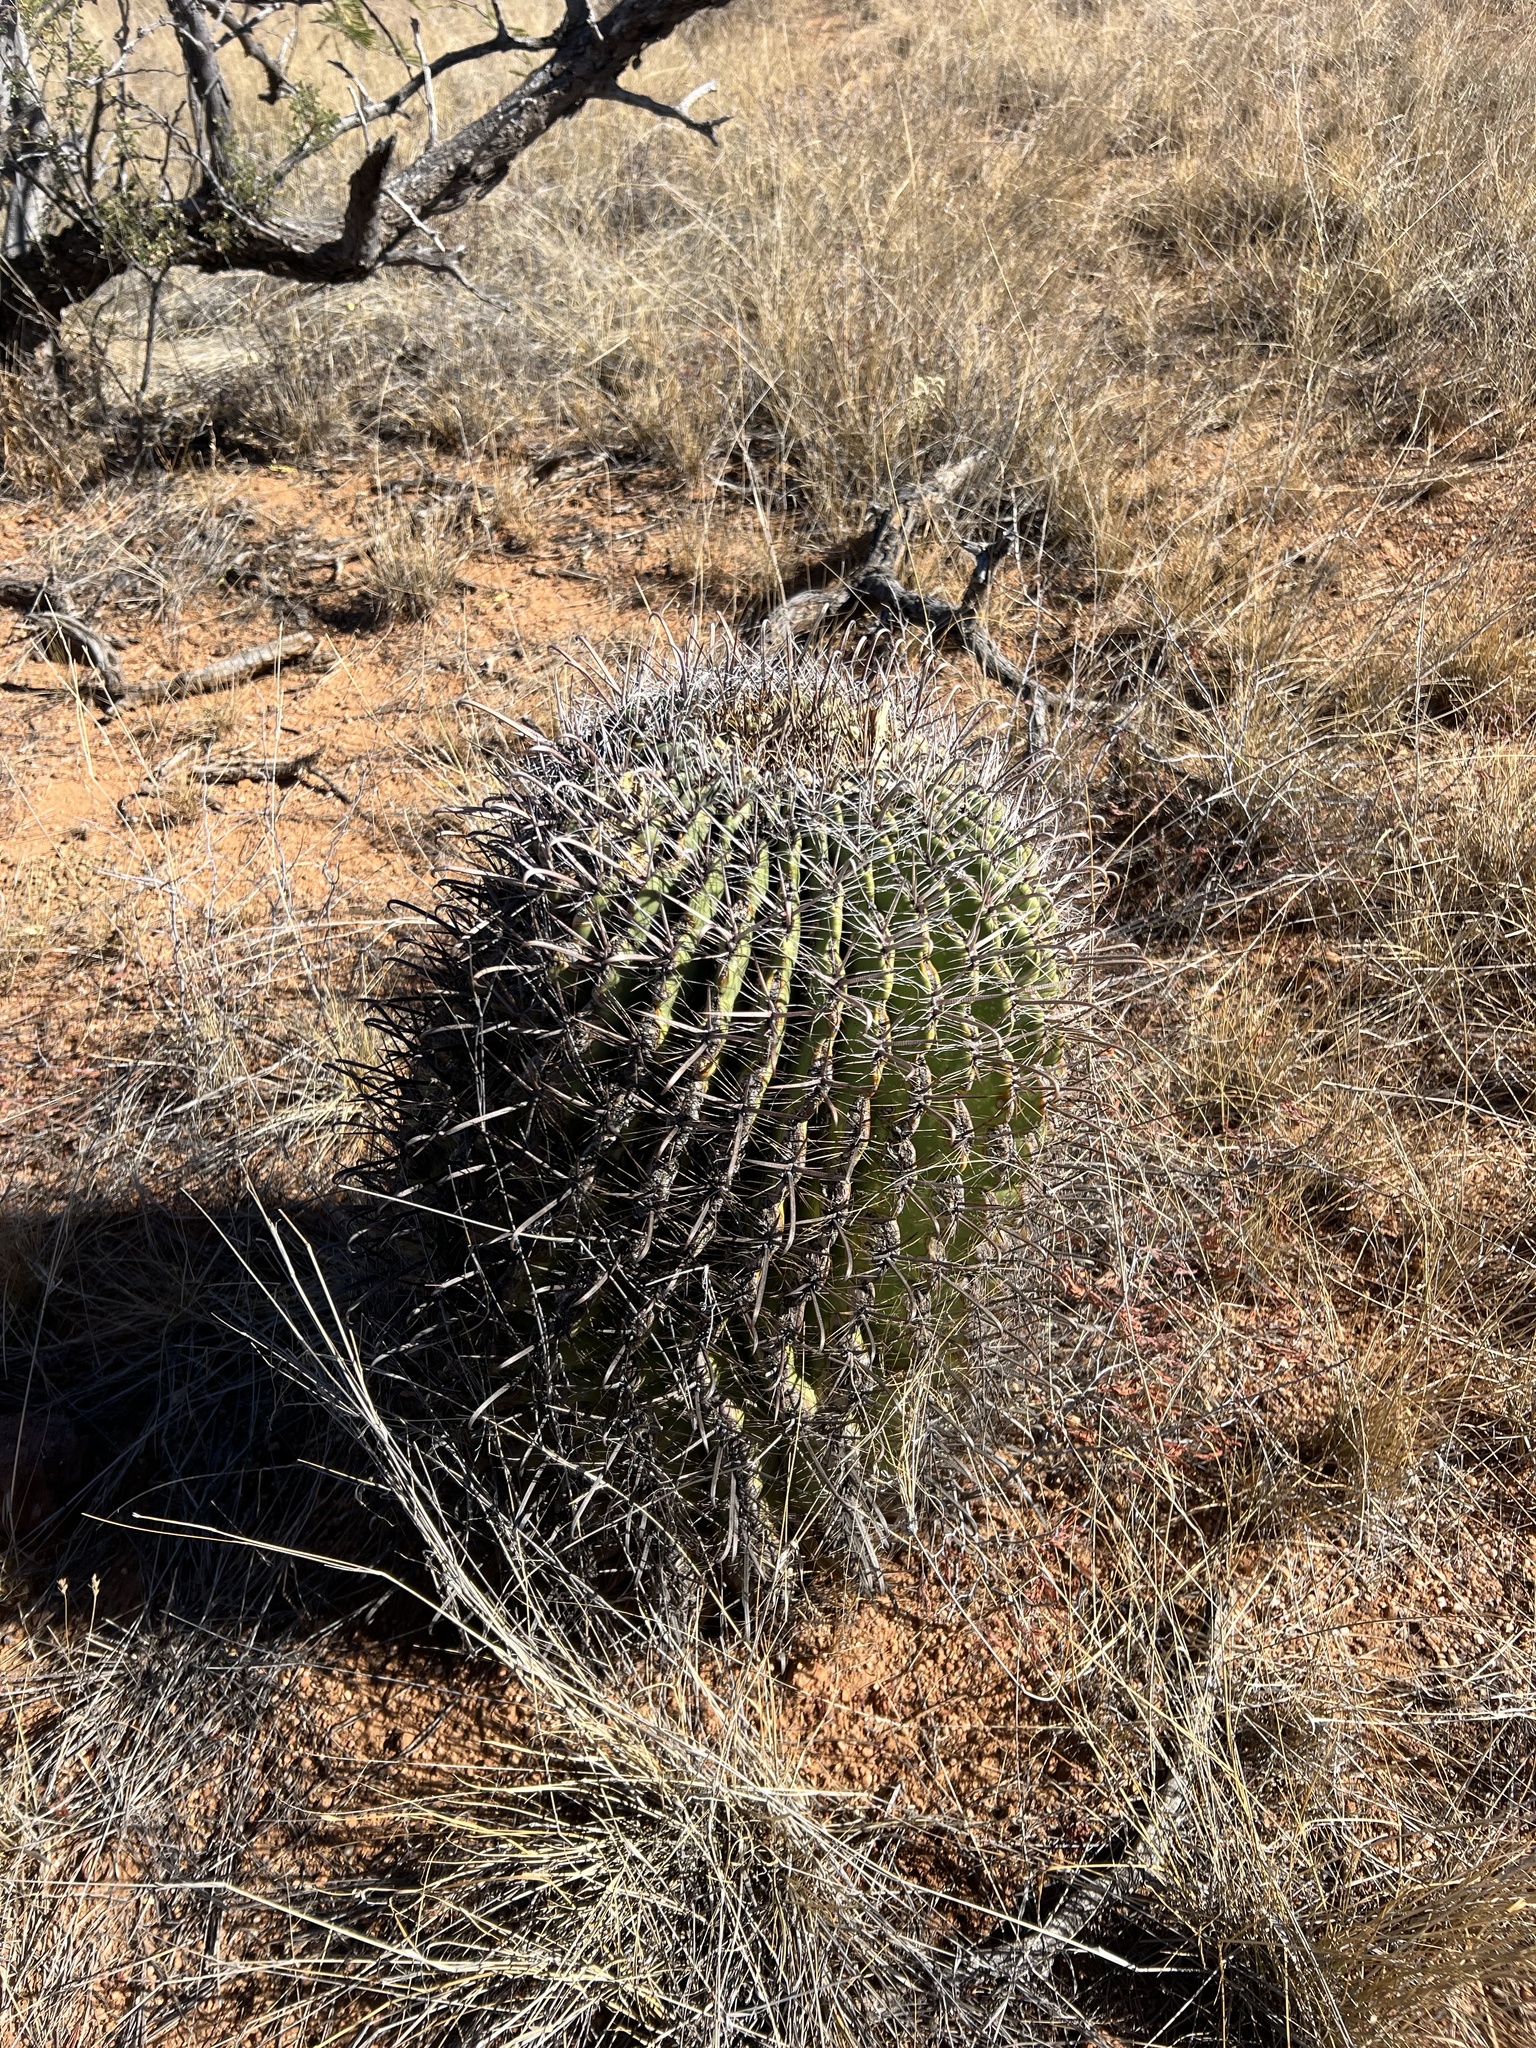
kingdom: Plantae
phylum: Tracheophyta
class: Magnoliopsida
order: Caryophyllales
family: Cactaceae
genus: Ferocactus
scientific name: Ferocactus wislizeni
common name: Candy barrel cactus
